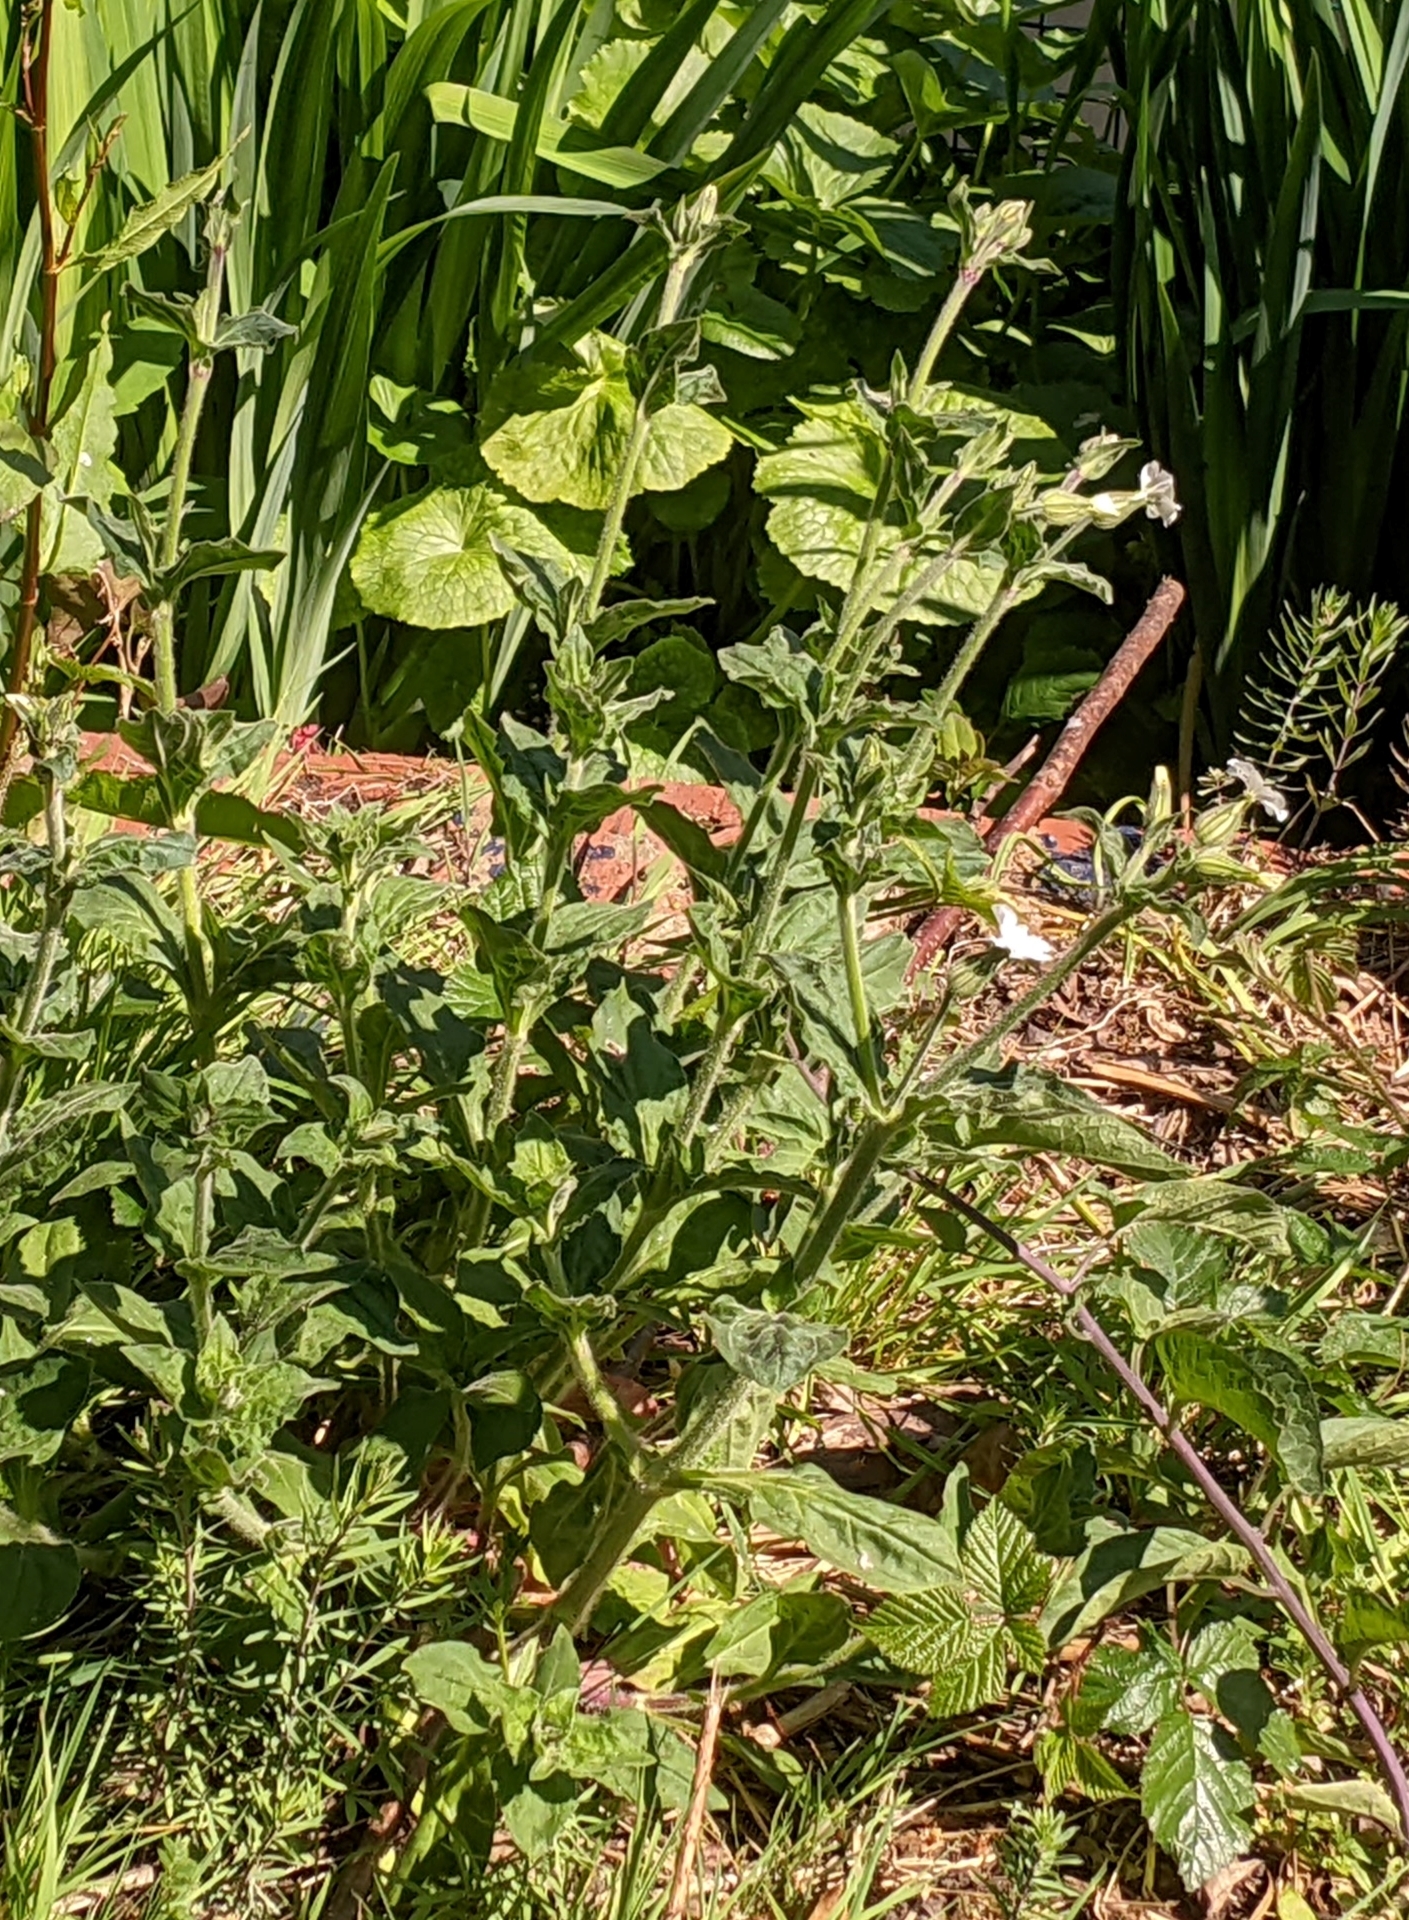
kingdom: Plantae
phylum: Tracheophyta
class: Magnoliopsida
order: Caryophyllales
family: Caryophyllaceae
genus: Silene
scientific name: Silene latifolia
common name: White campion
